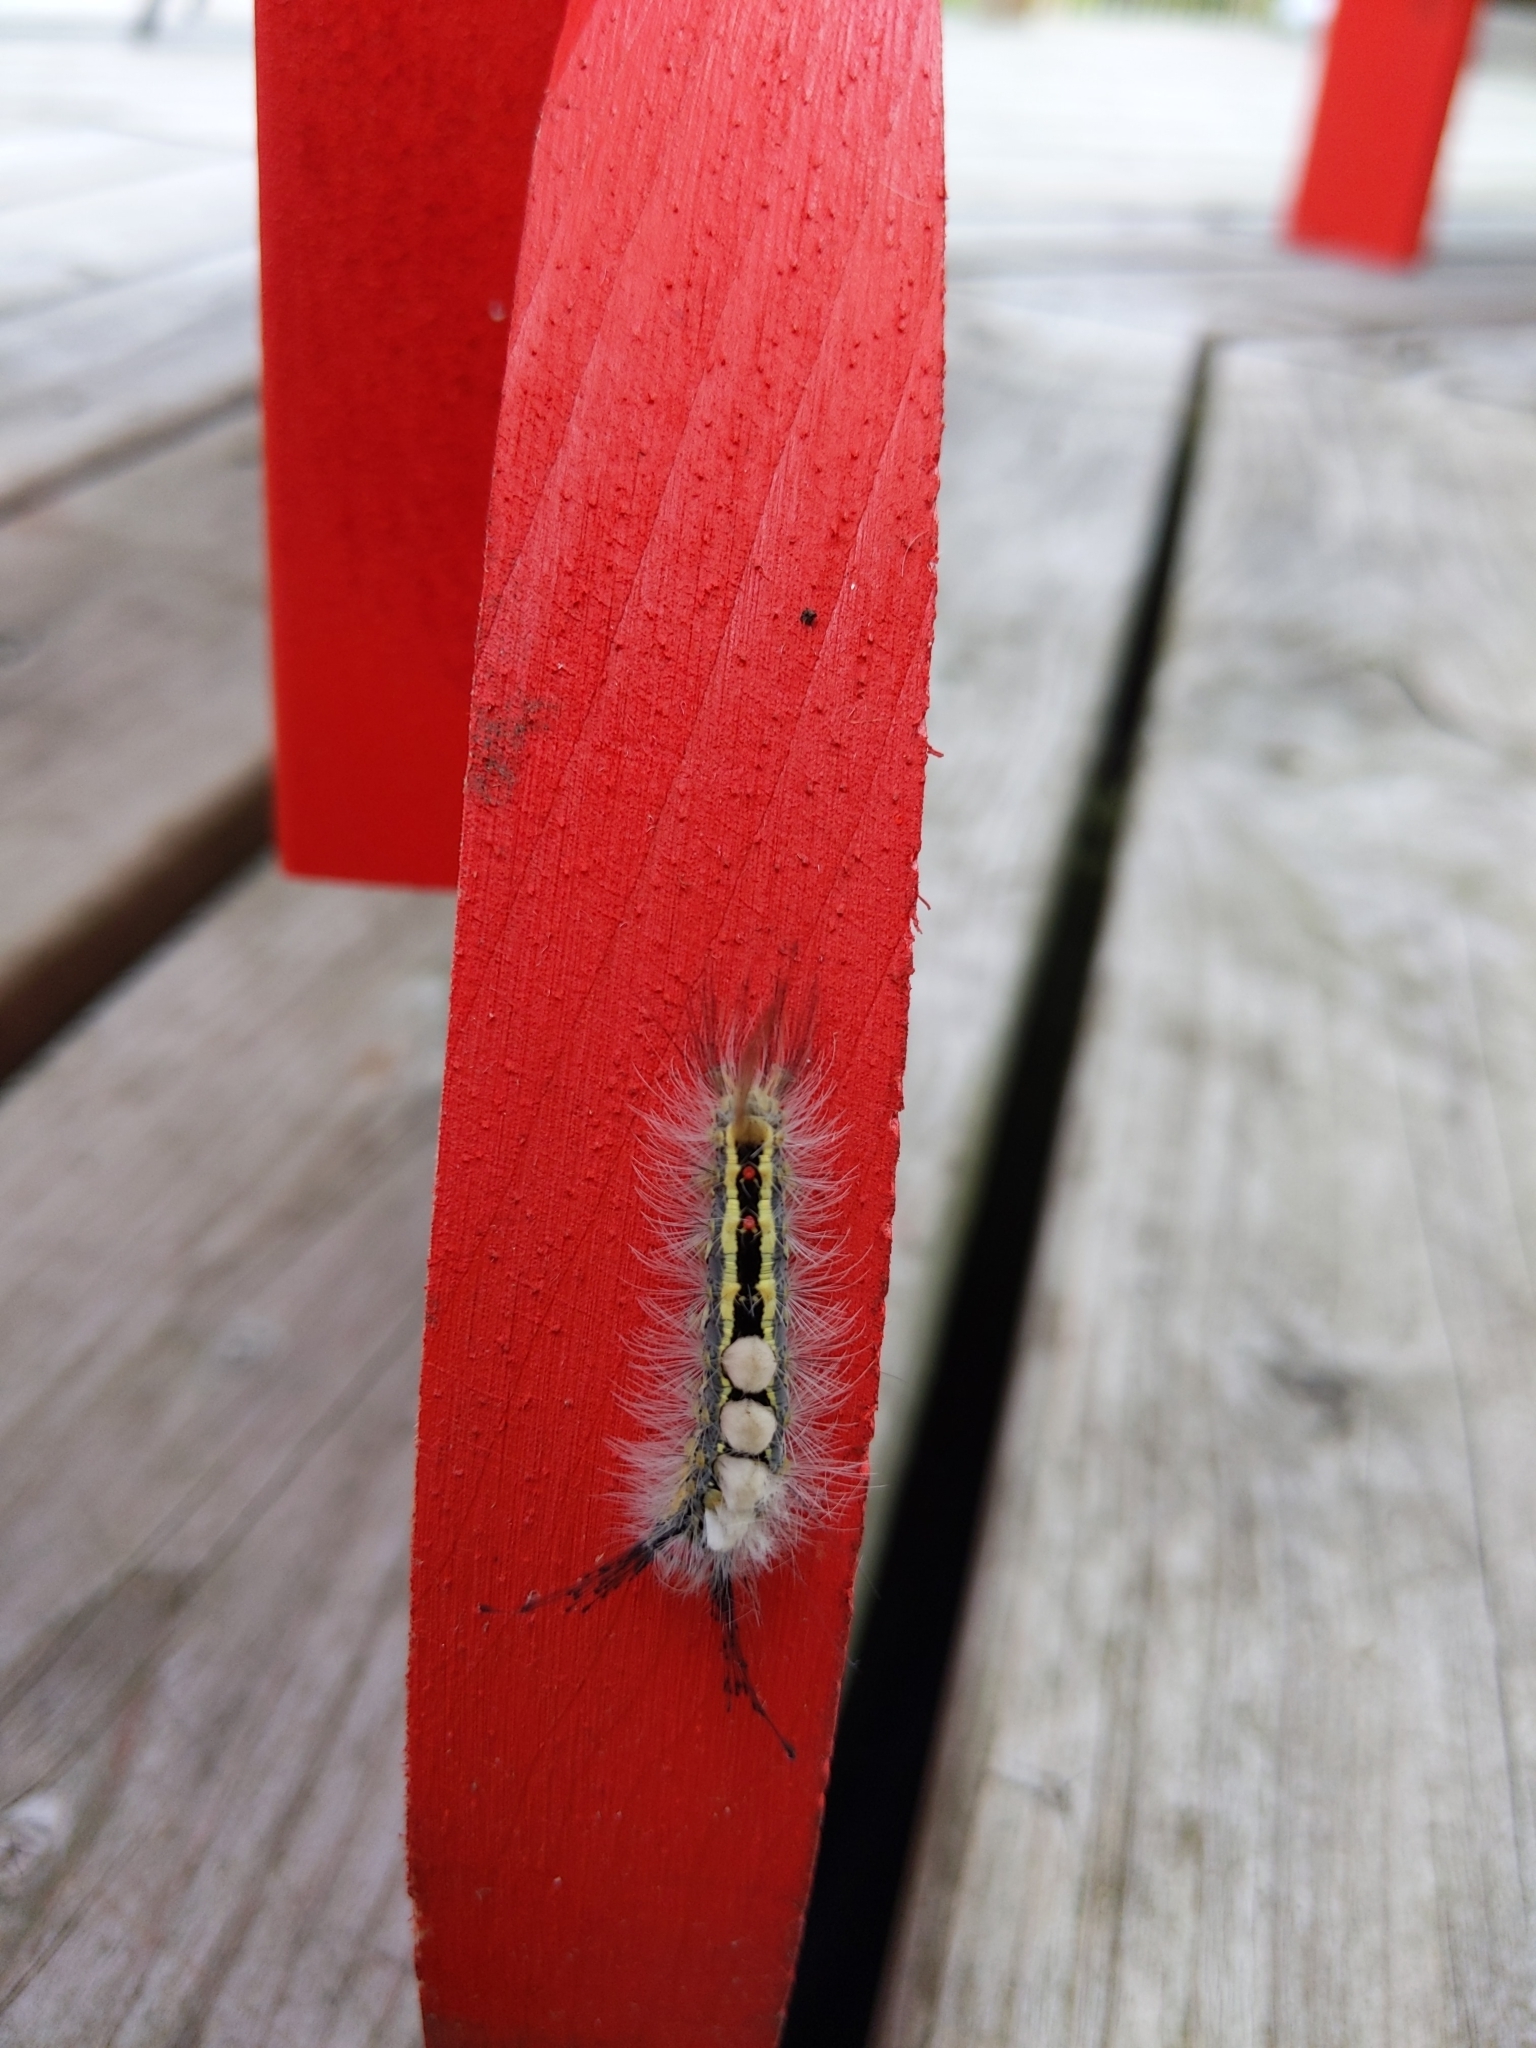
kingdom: Animalia
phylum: Arthropoda
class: Insecta
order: Lepidoptera
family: Erebidae
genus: Orgyia
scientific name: Orgyia leucostigma
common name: White-marked tussock moth
